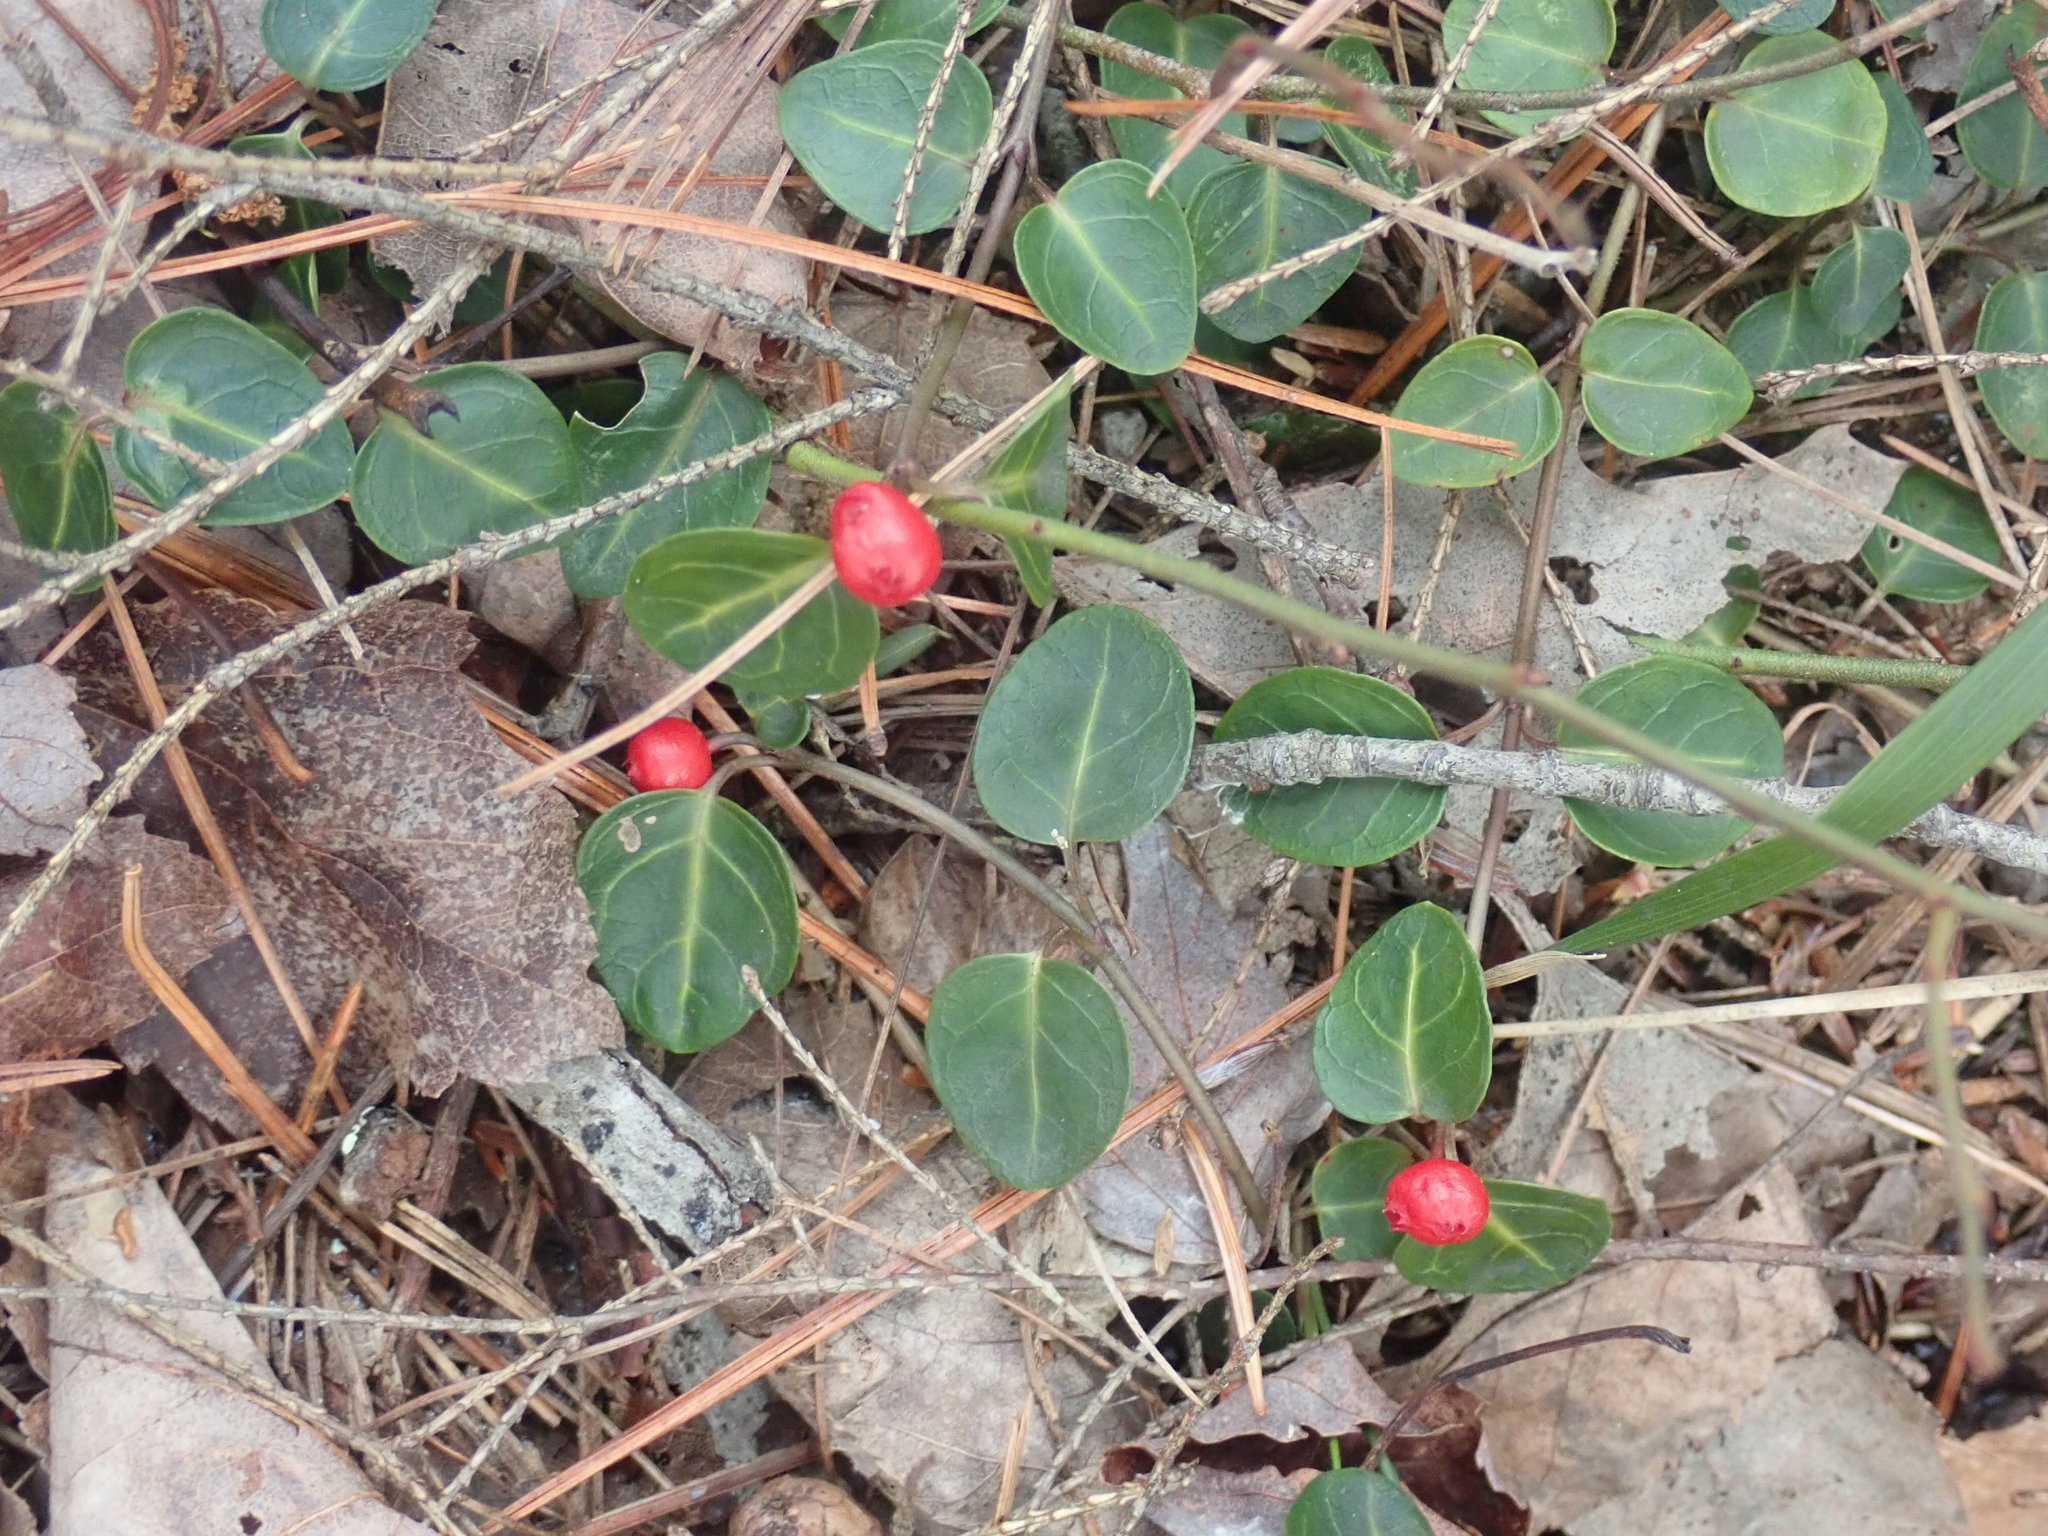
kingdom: Plantae
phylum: Tracheophyta
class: Magnoliopsida
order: Gentianales
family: Rubiaceae
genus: Mitchella
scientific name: Mitchella repens
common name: Partridge-berry
